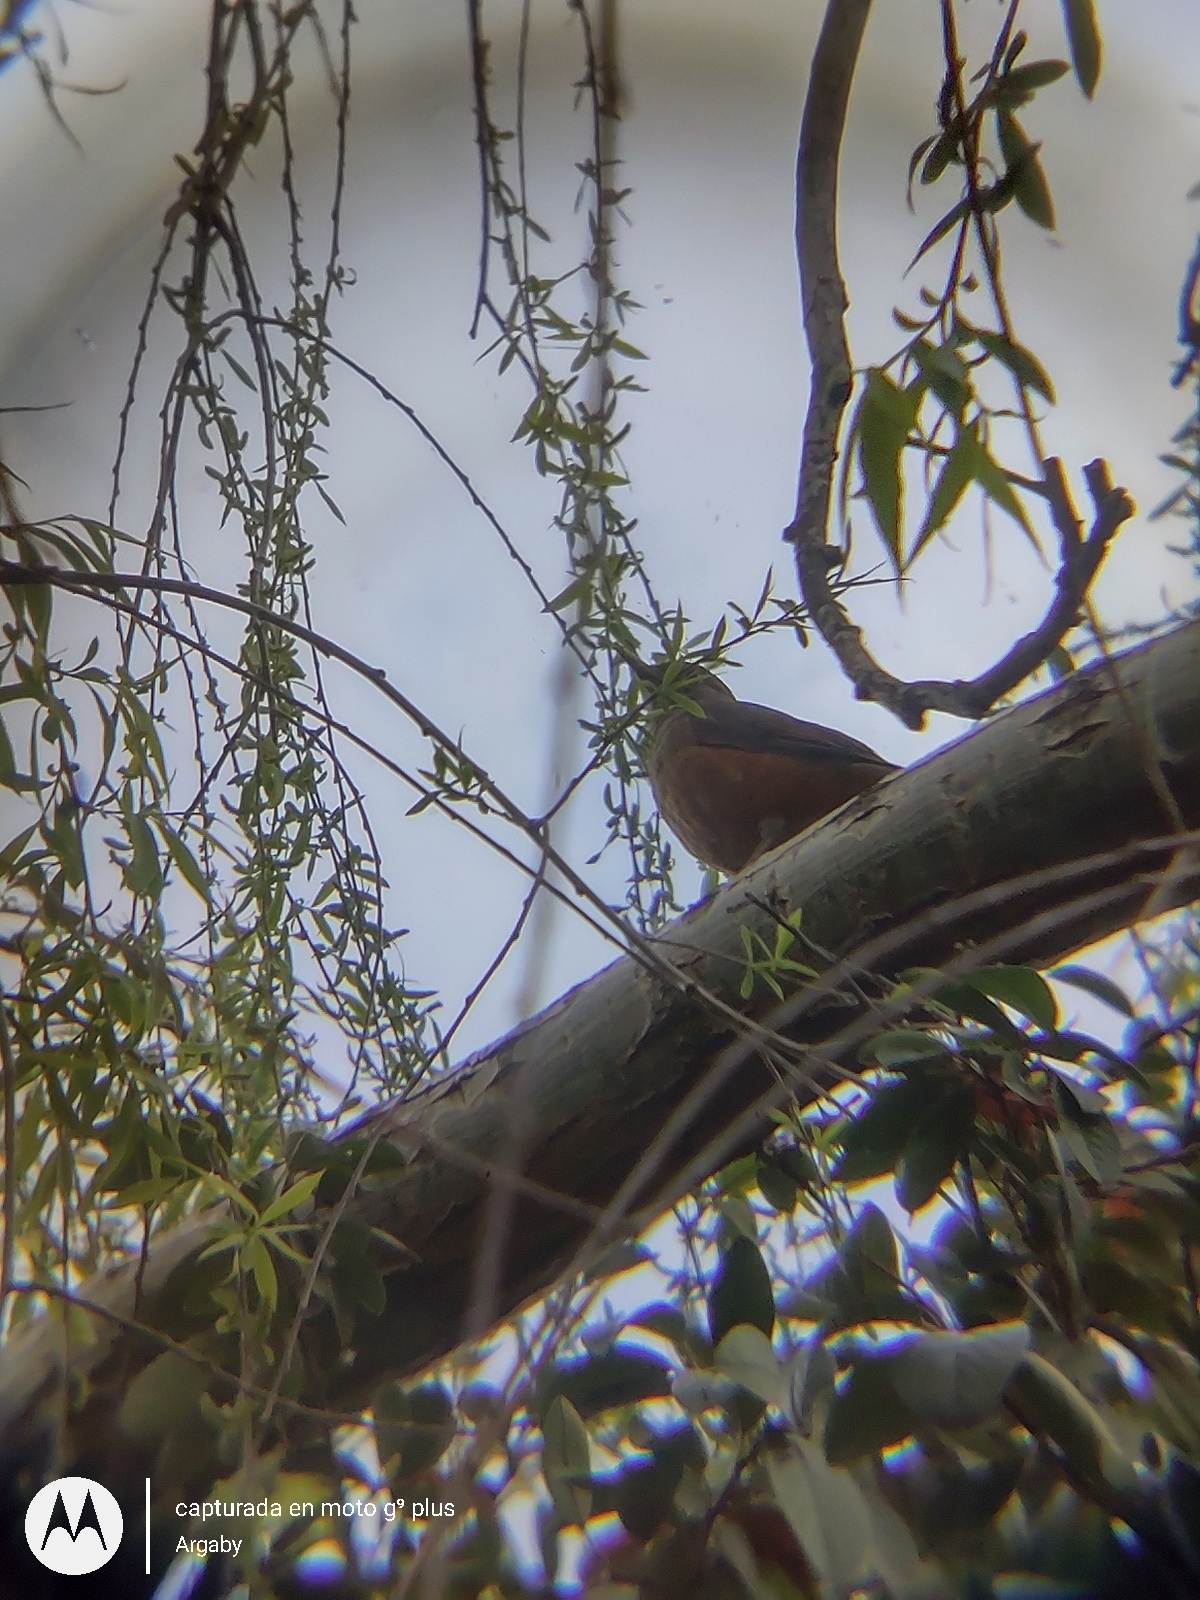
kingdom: Animalia
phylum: Chordata
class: Aves
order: Passeriformes
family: Turdidae
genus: Turdus
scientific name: Turdus rufiventris
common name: Rufous-bellied thrush
